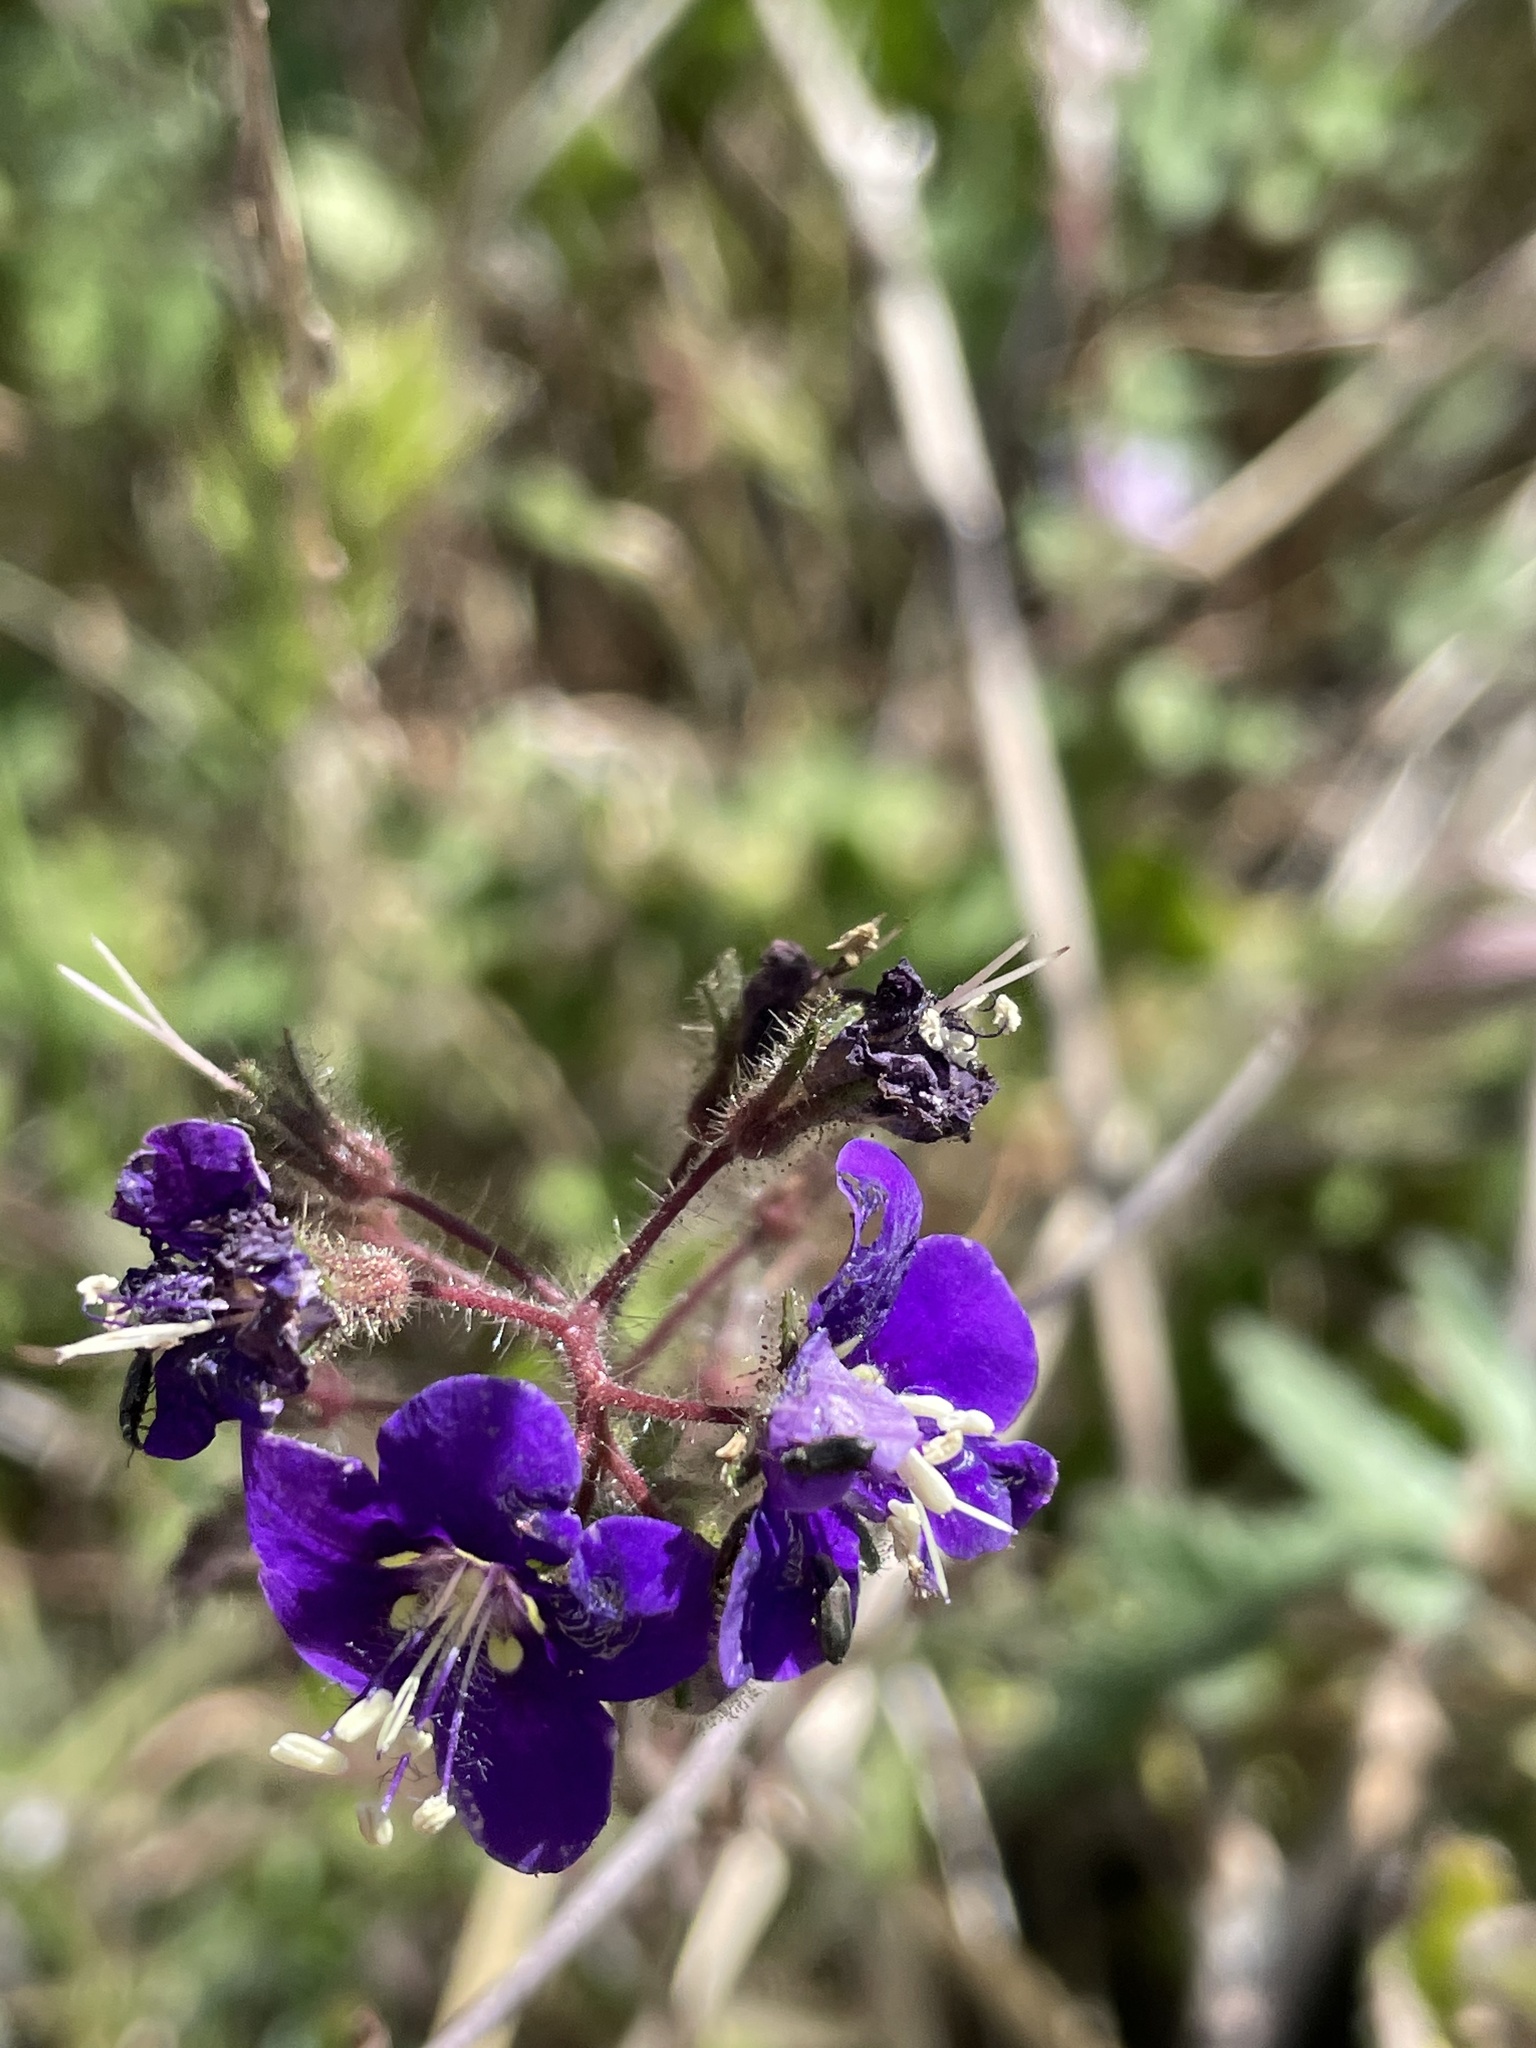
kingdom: Plantae
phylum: Tracheophyta
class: Magnoliopsida
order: Boraginales
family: Hydrophyllaceae
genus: Phacelia
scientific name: Phacelia parryi
